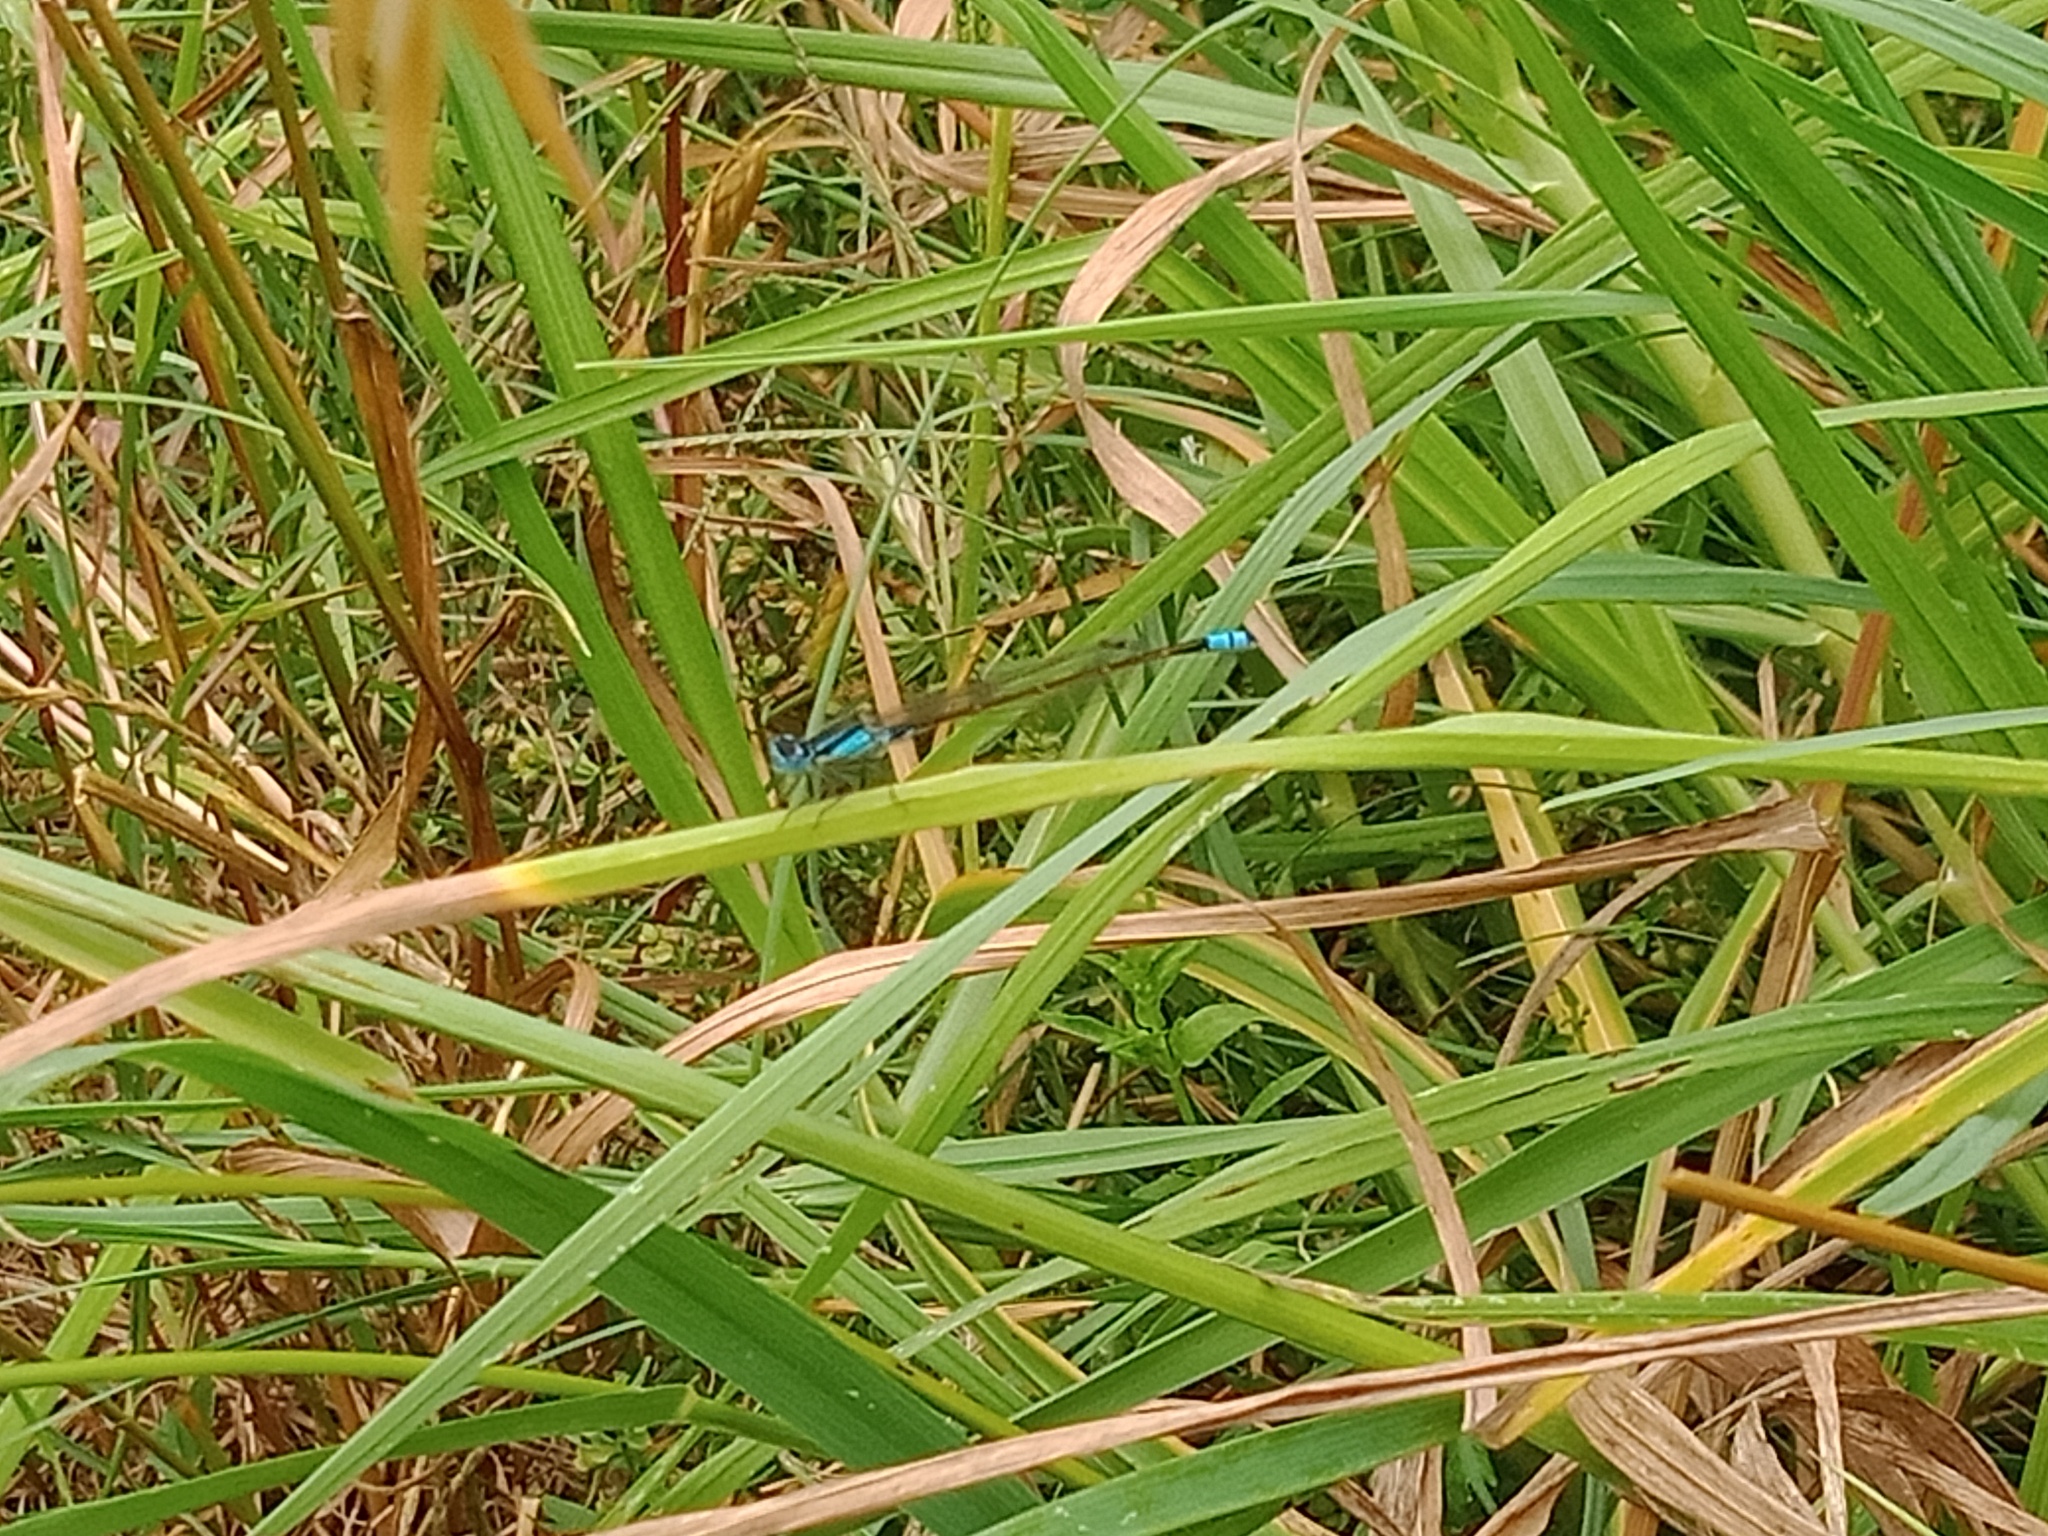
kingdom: Animalia
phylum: Arthropoda
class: Insecta
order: Odonata
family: Coenagrionidae
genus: Ischnura
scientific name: Ischnura heterosticta
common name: Common bluetail
